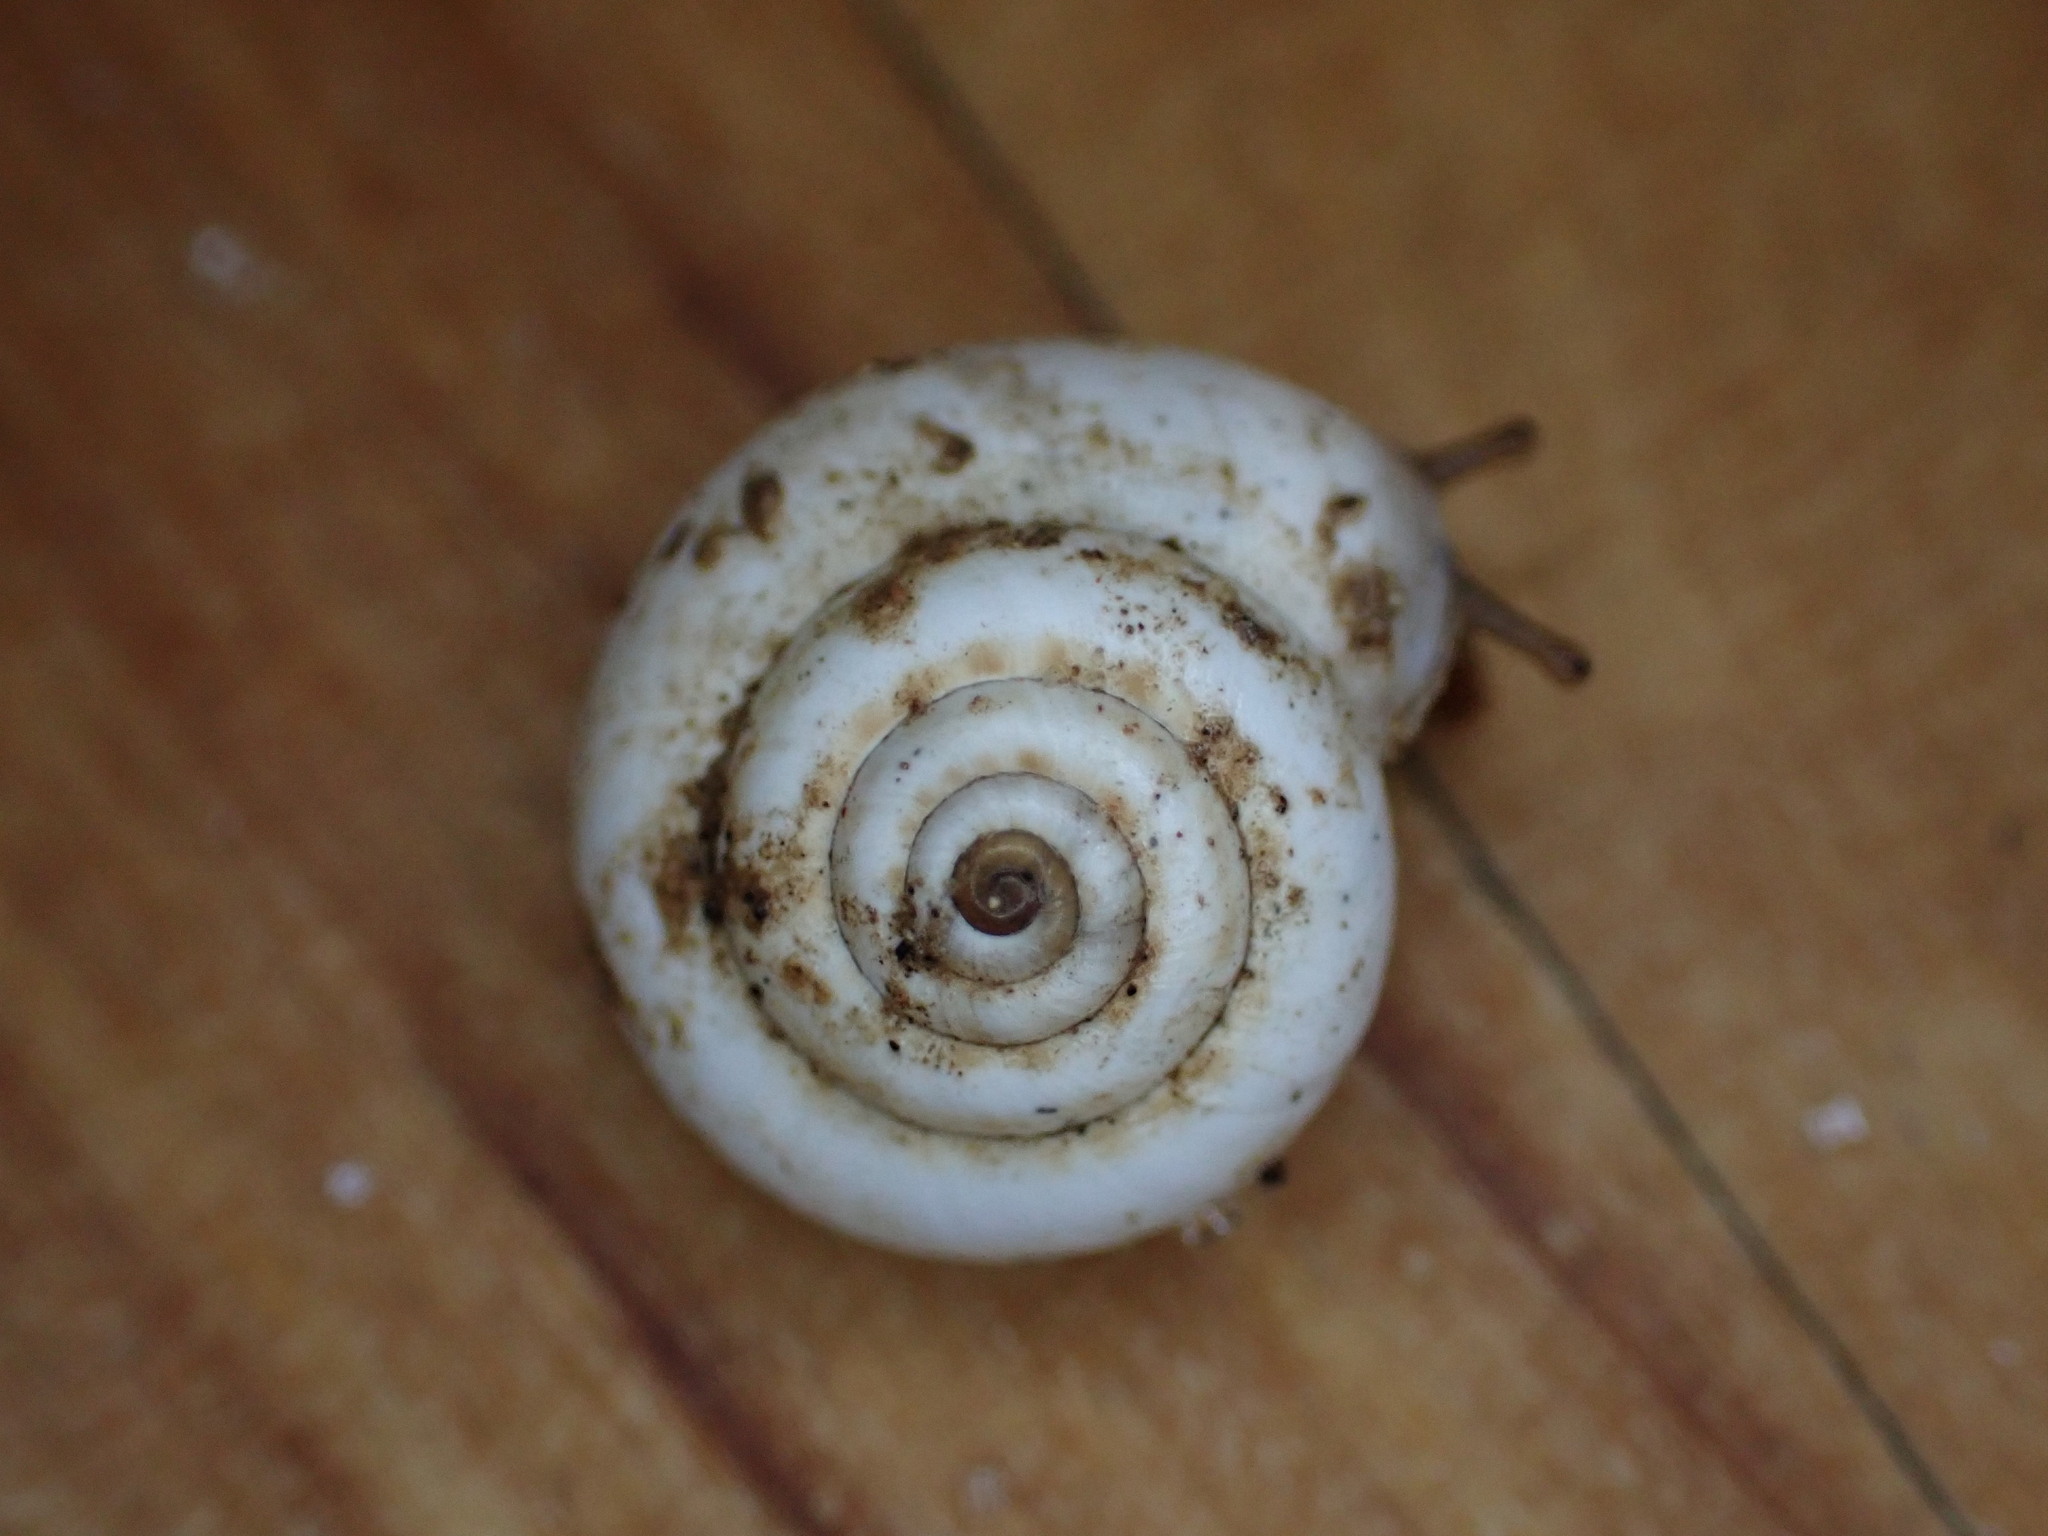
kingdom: Animalia
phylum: Mollusca
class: Gastropoda
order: Stylommatophora
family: Geomitridae
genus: Xeropicta
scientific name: Xeropicta derbentina
